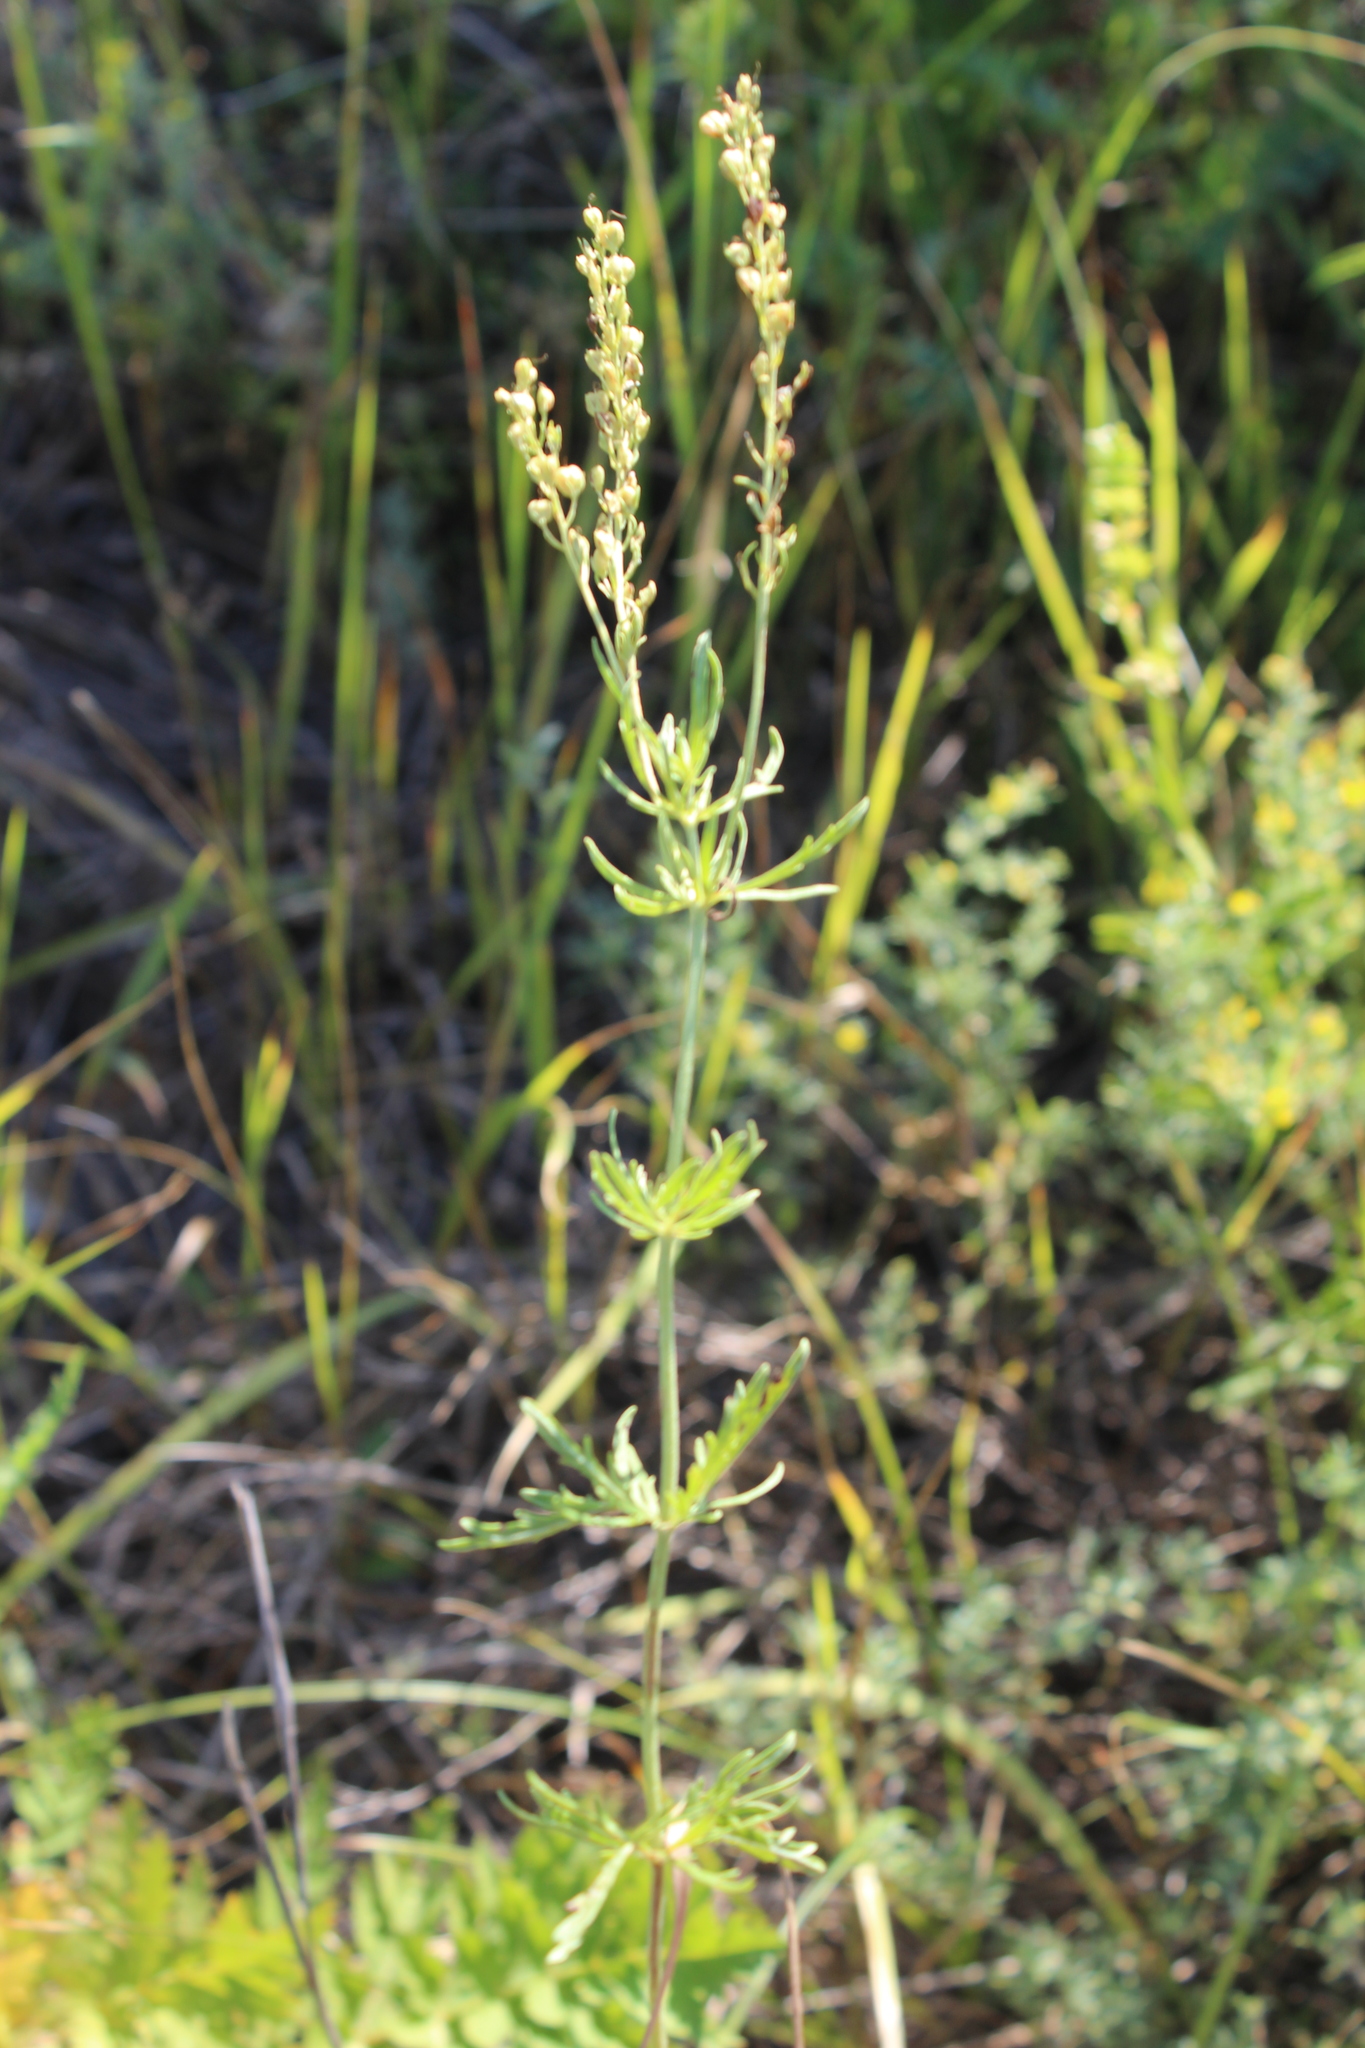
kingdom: Plantae
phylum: Tracheophyta
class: Magnoliopsida
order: Lamiales
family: Plantaginaceae
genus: Veronica
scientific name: Veronica austriaca
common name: Large speedwell
